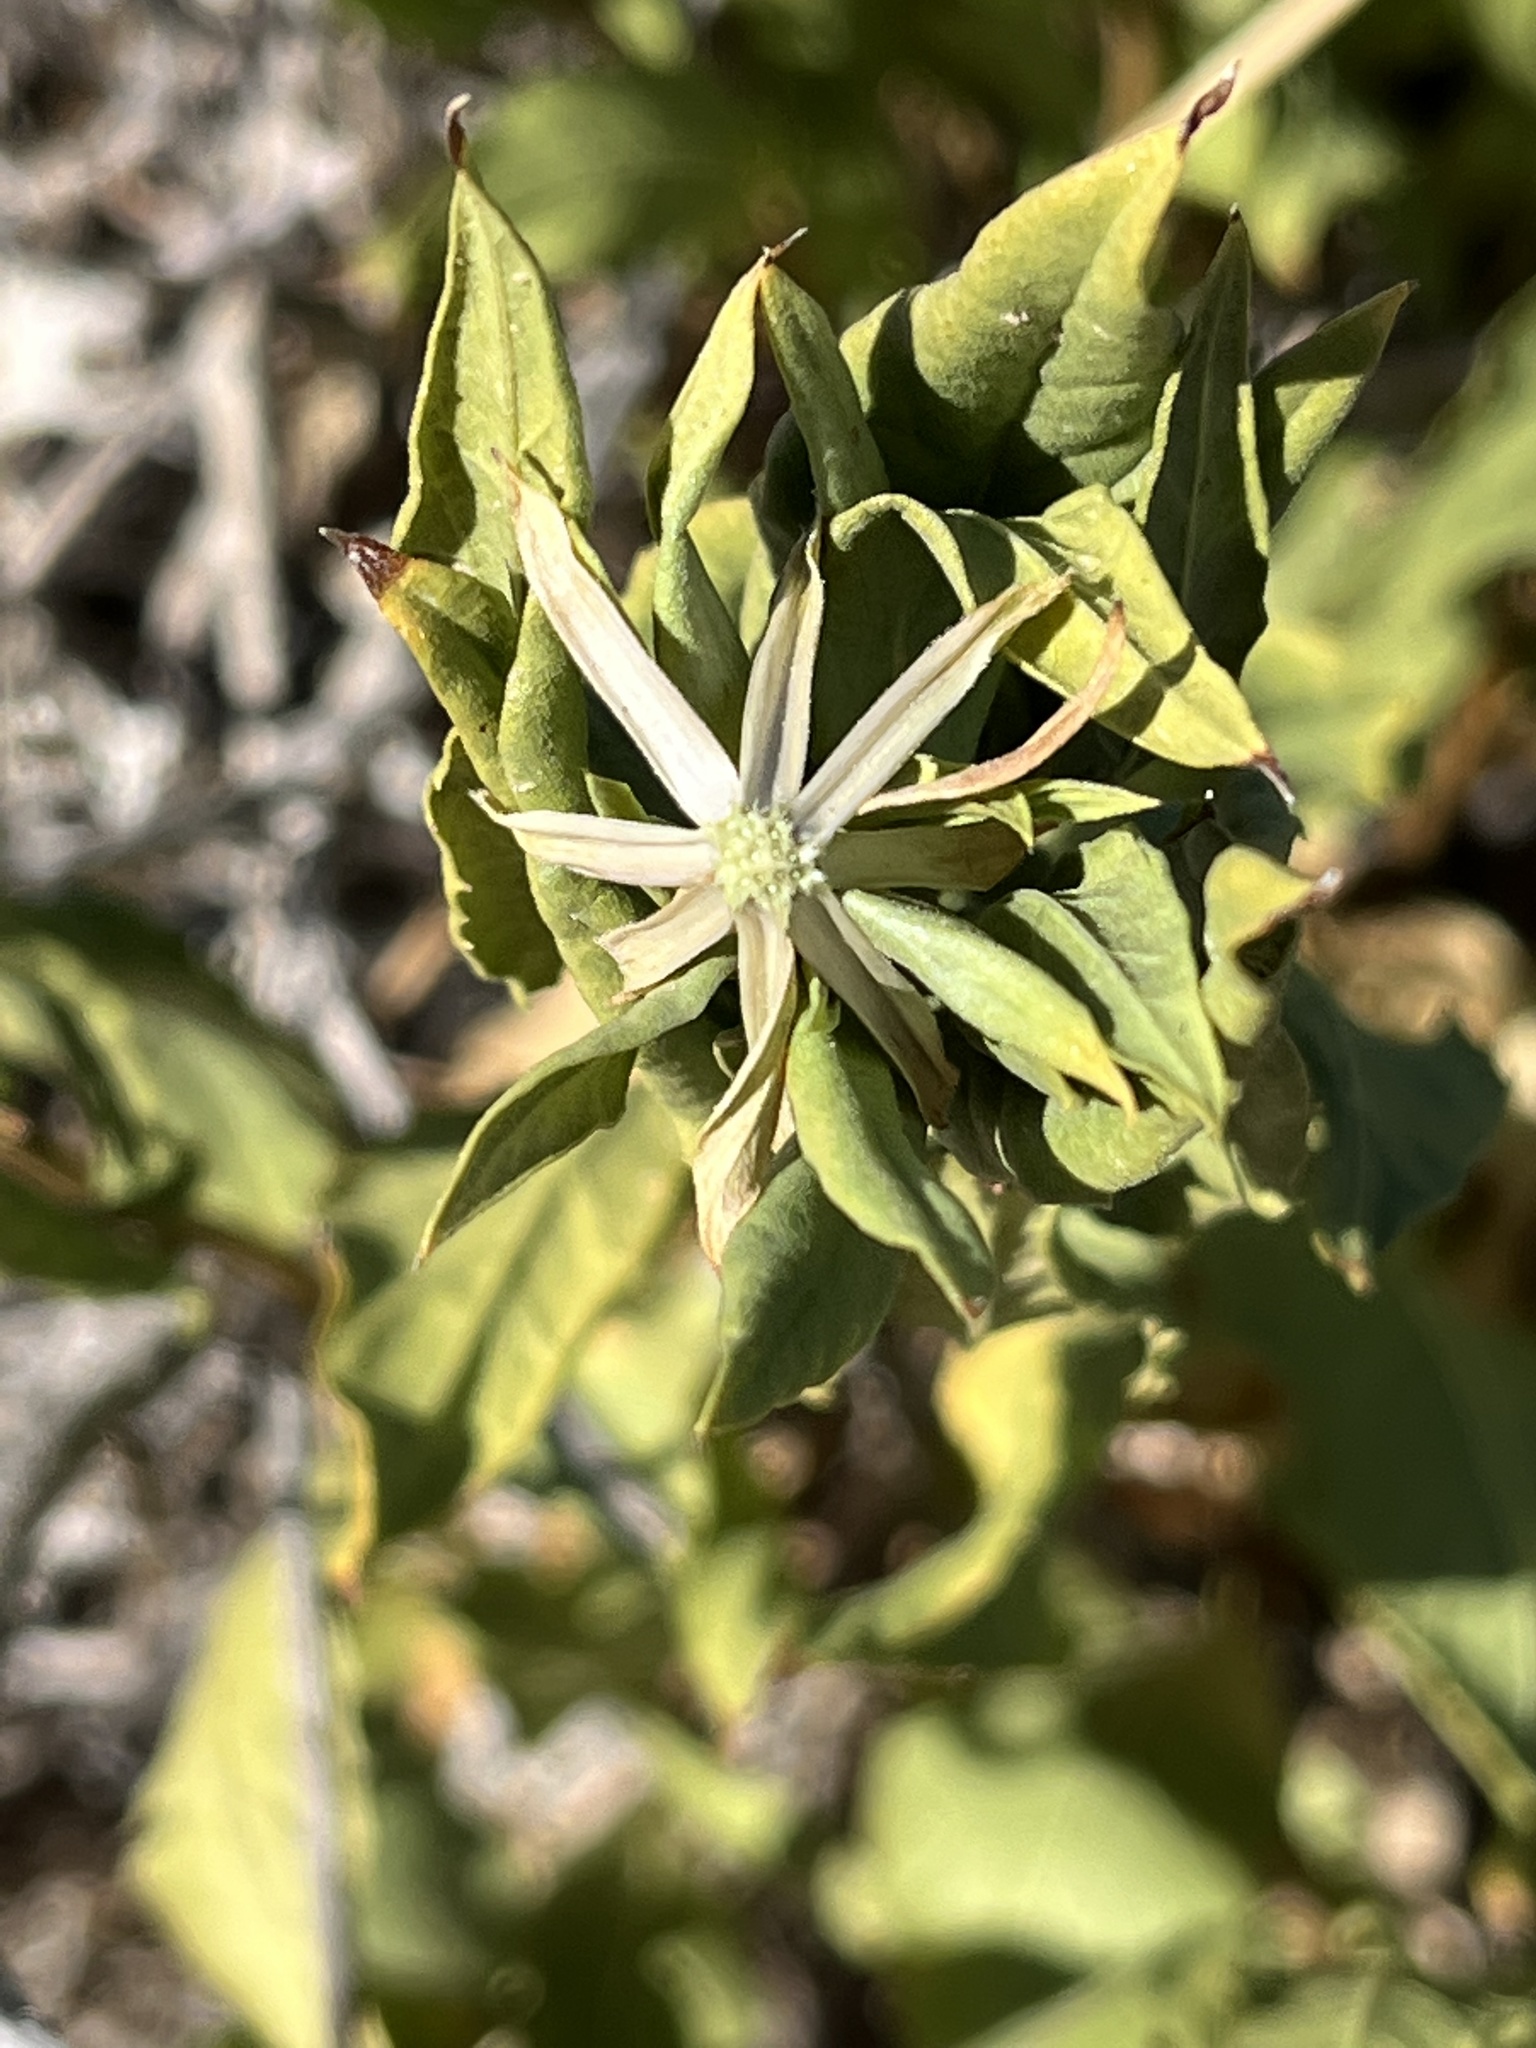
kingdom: Plantae
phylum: Tracheophyta
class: Magnoliopsida
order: Asterales
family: Asteraceae
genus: Trixis
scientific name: Trixis californica
